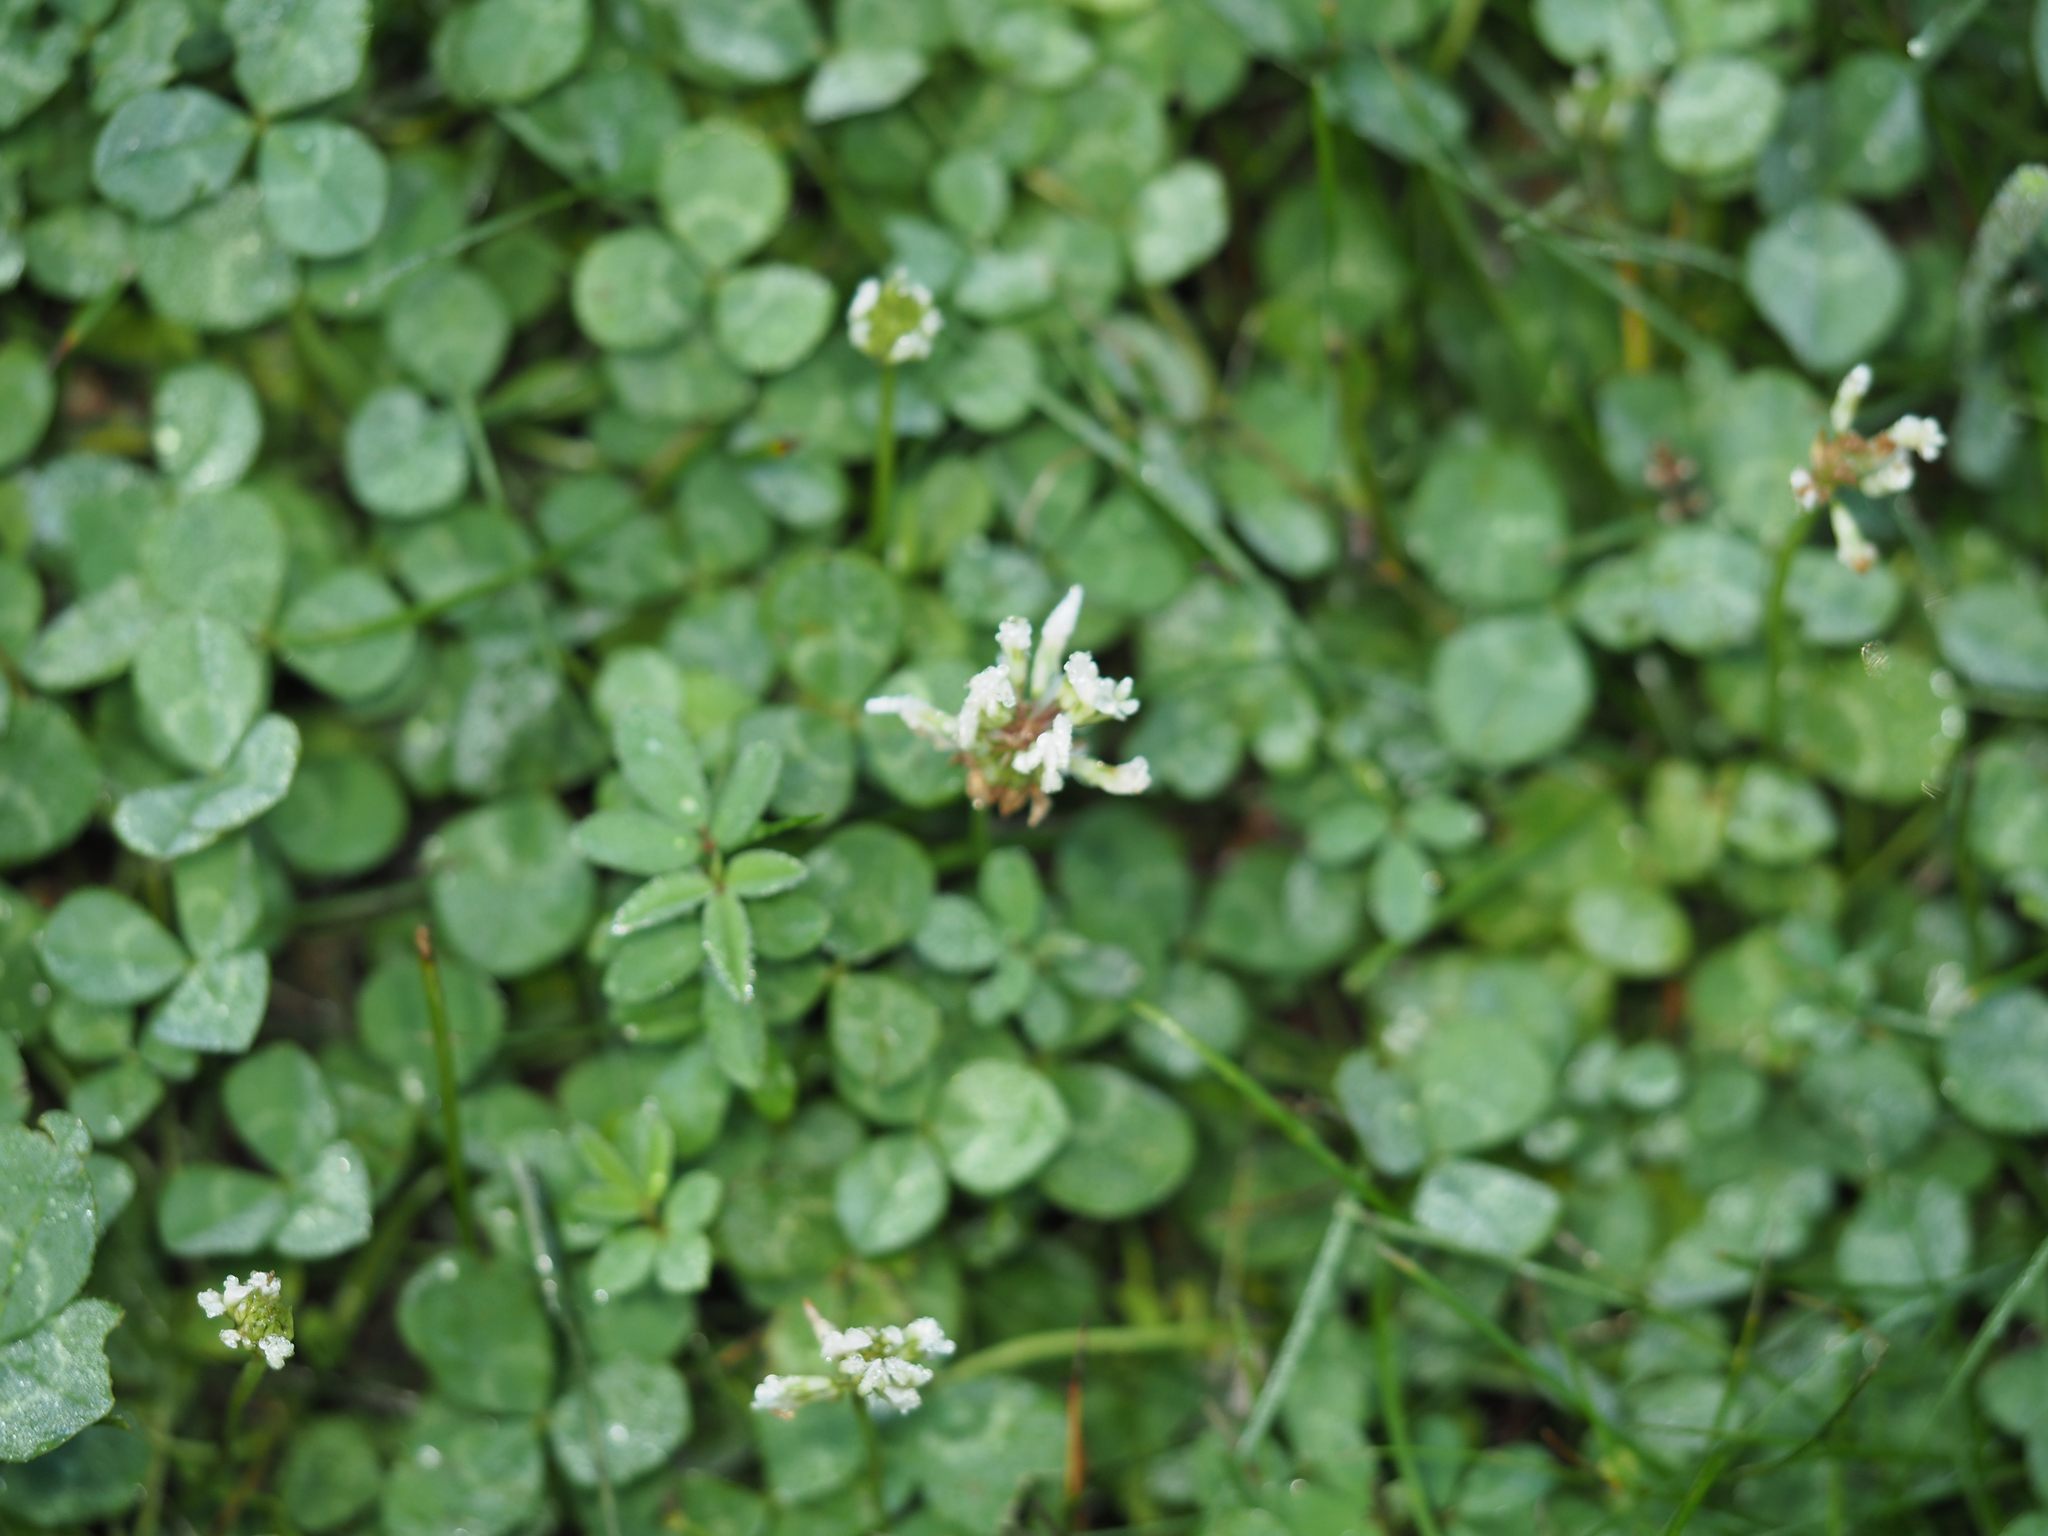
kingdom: Plantae
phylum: Tracheophyta
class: Magnoliopsida
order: Fabales
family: Fabaceae
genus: Trifolium
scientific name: Trifolium repens
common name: White clover
